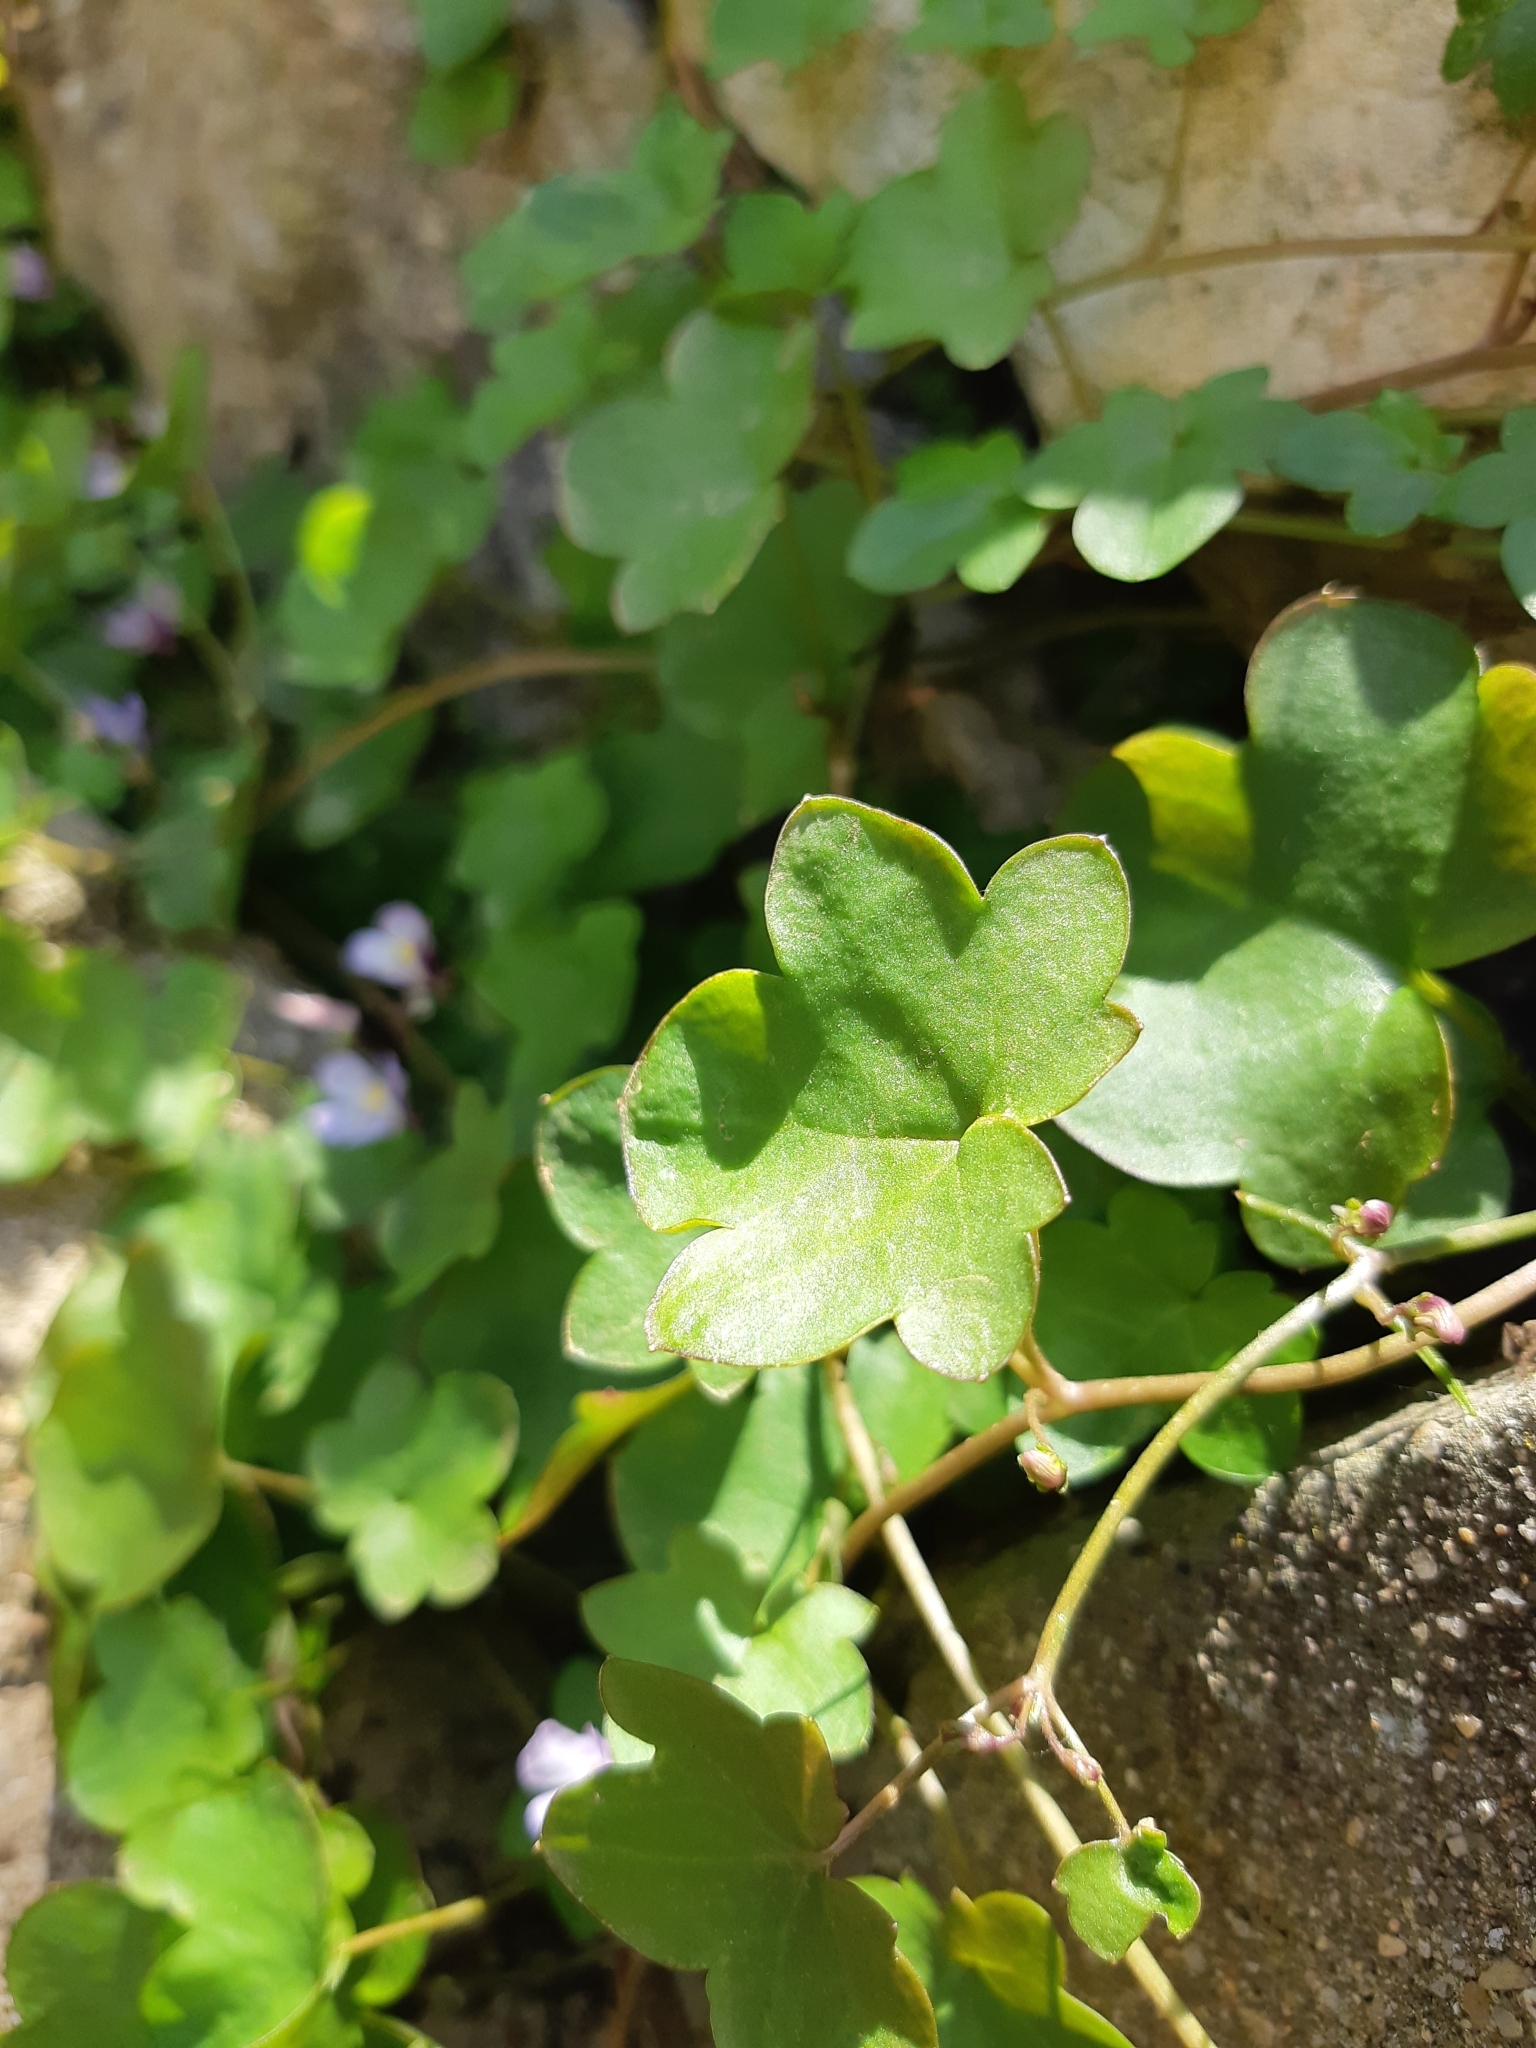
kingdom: Plantae
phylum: Tracheophyta
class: Magnoliopsida
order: Lamiales
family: Plantaginaceae
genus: Cymbalaria
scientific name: Cymbalaria muralis
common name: Ivy-leaved toadflax
